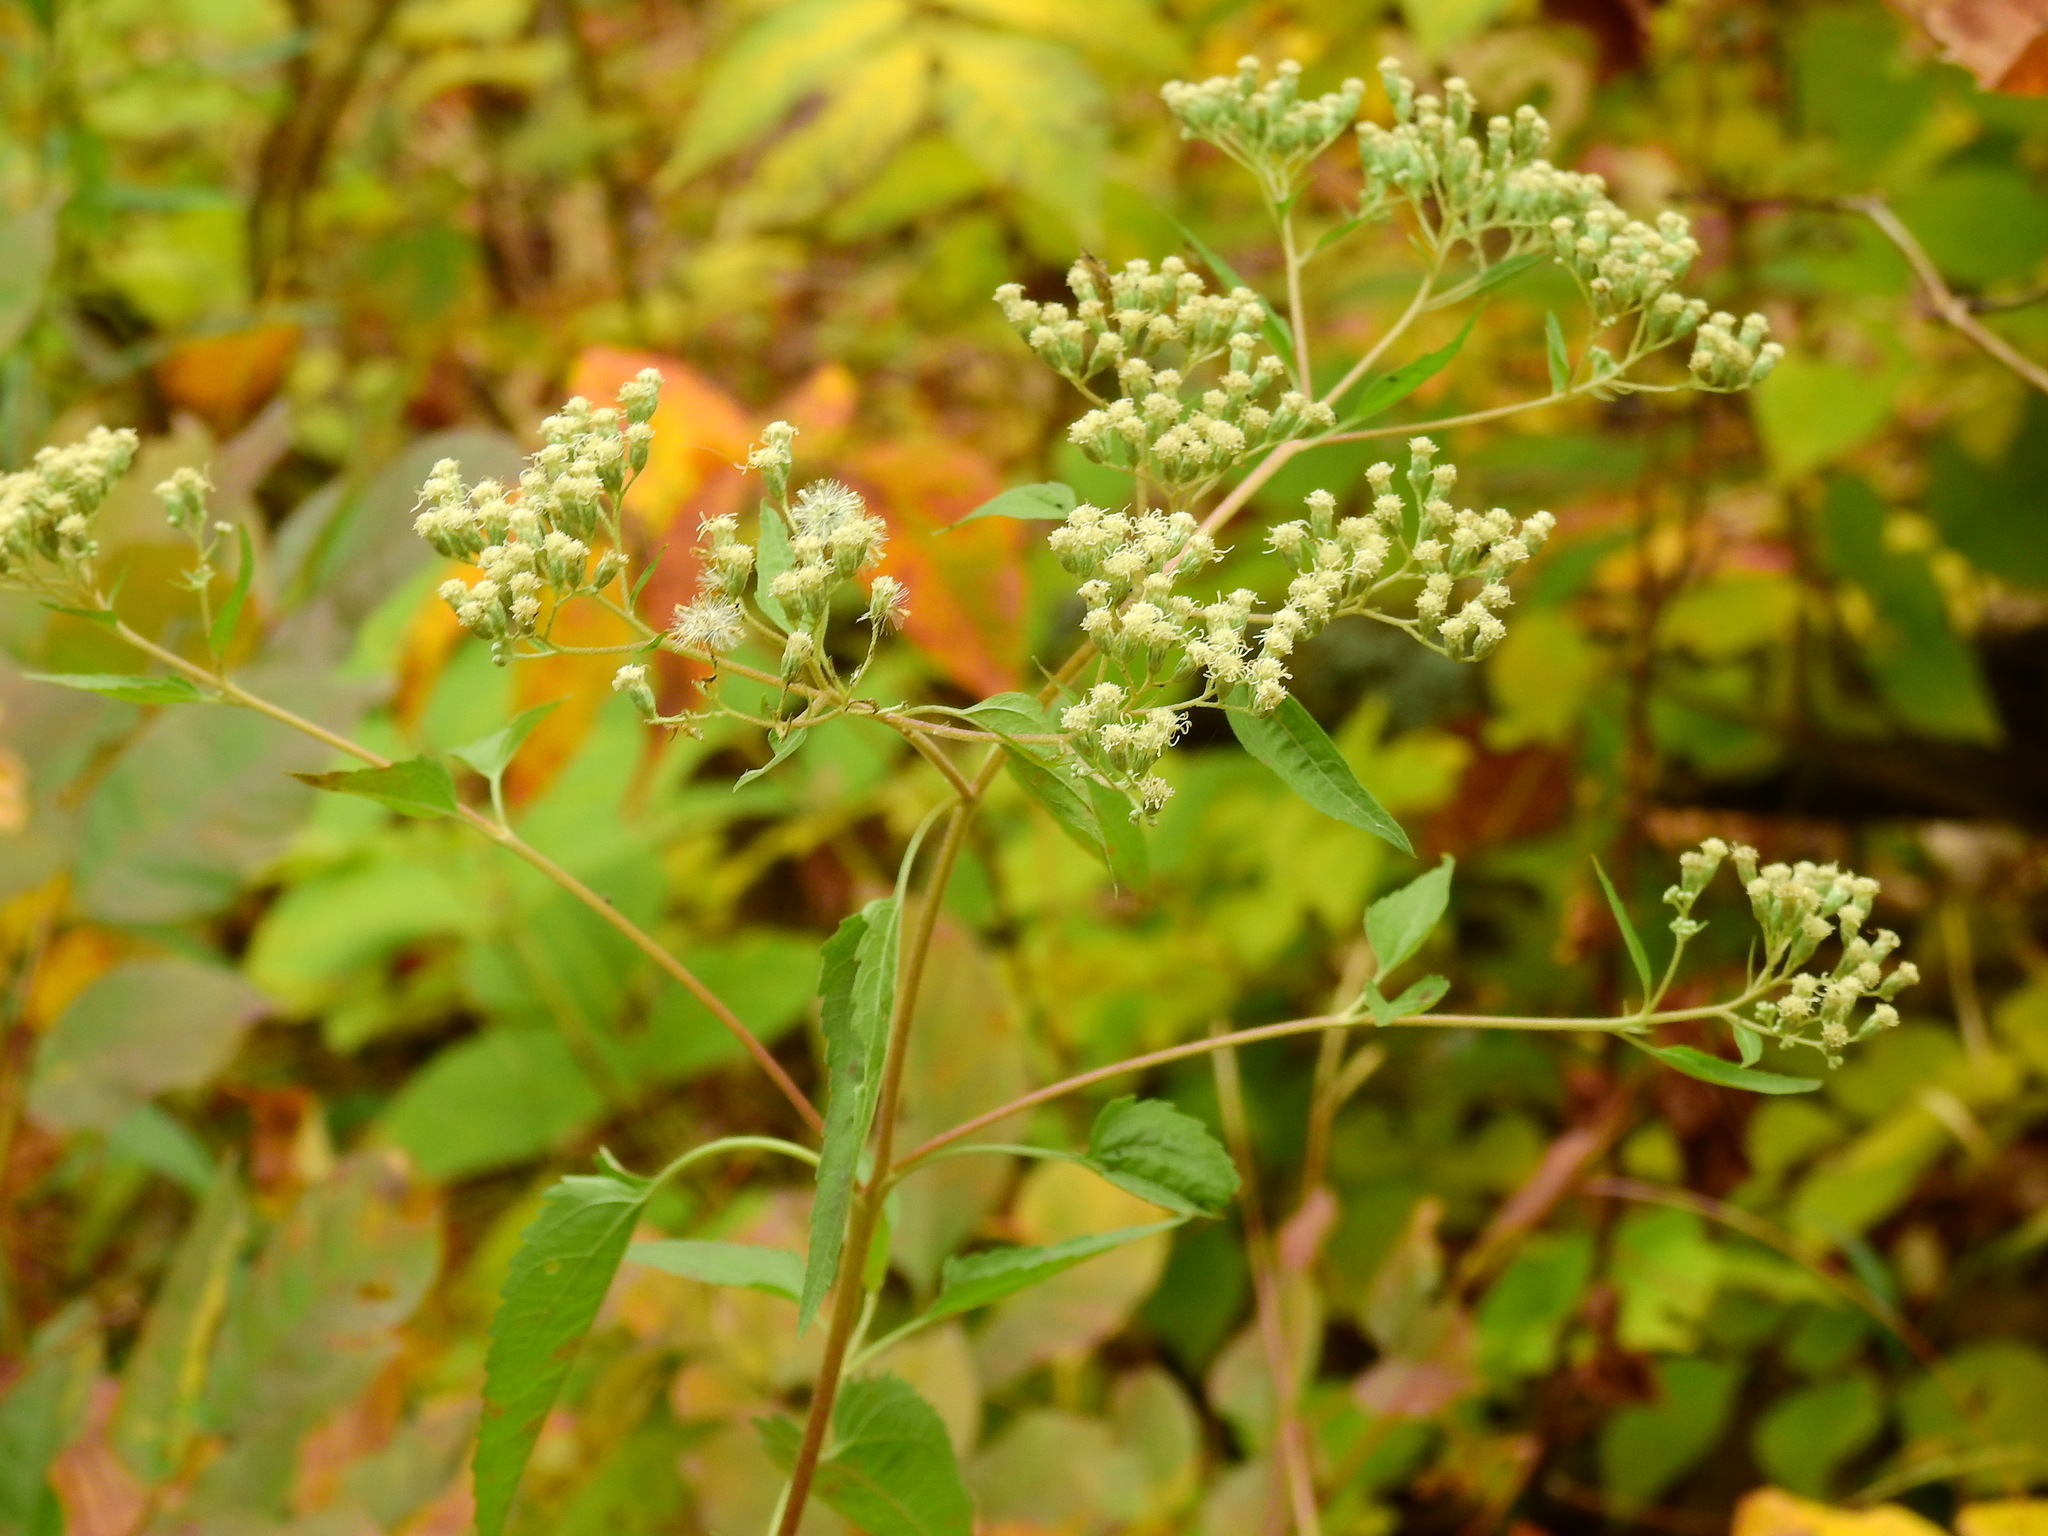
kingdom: Plantae
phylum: Tracheophyta
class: Magnoliopsida
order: Asterales
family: Asteraceae
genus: Eupatorium
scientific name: Eupatorium serotinum
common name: Late boneset
